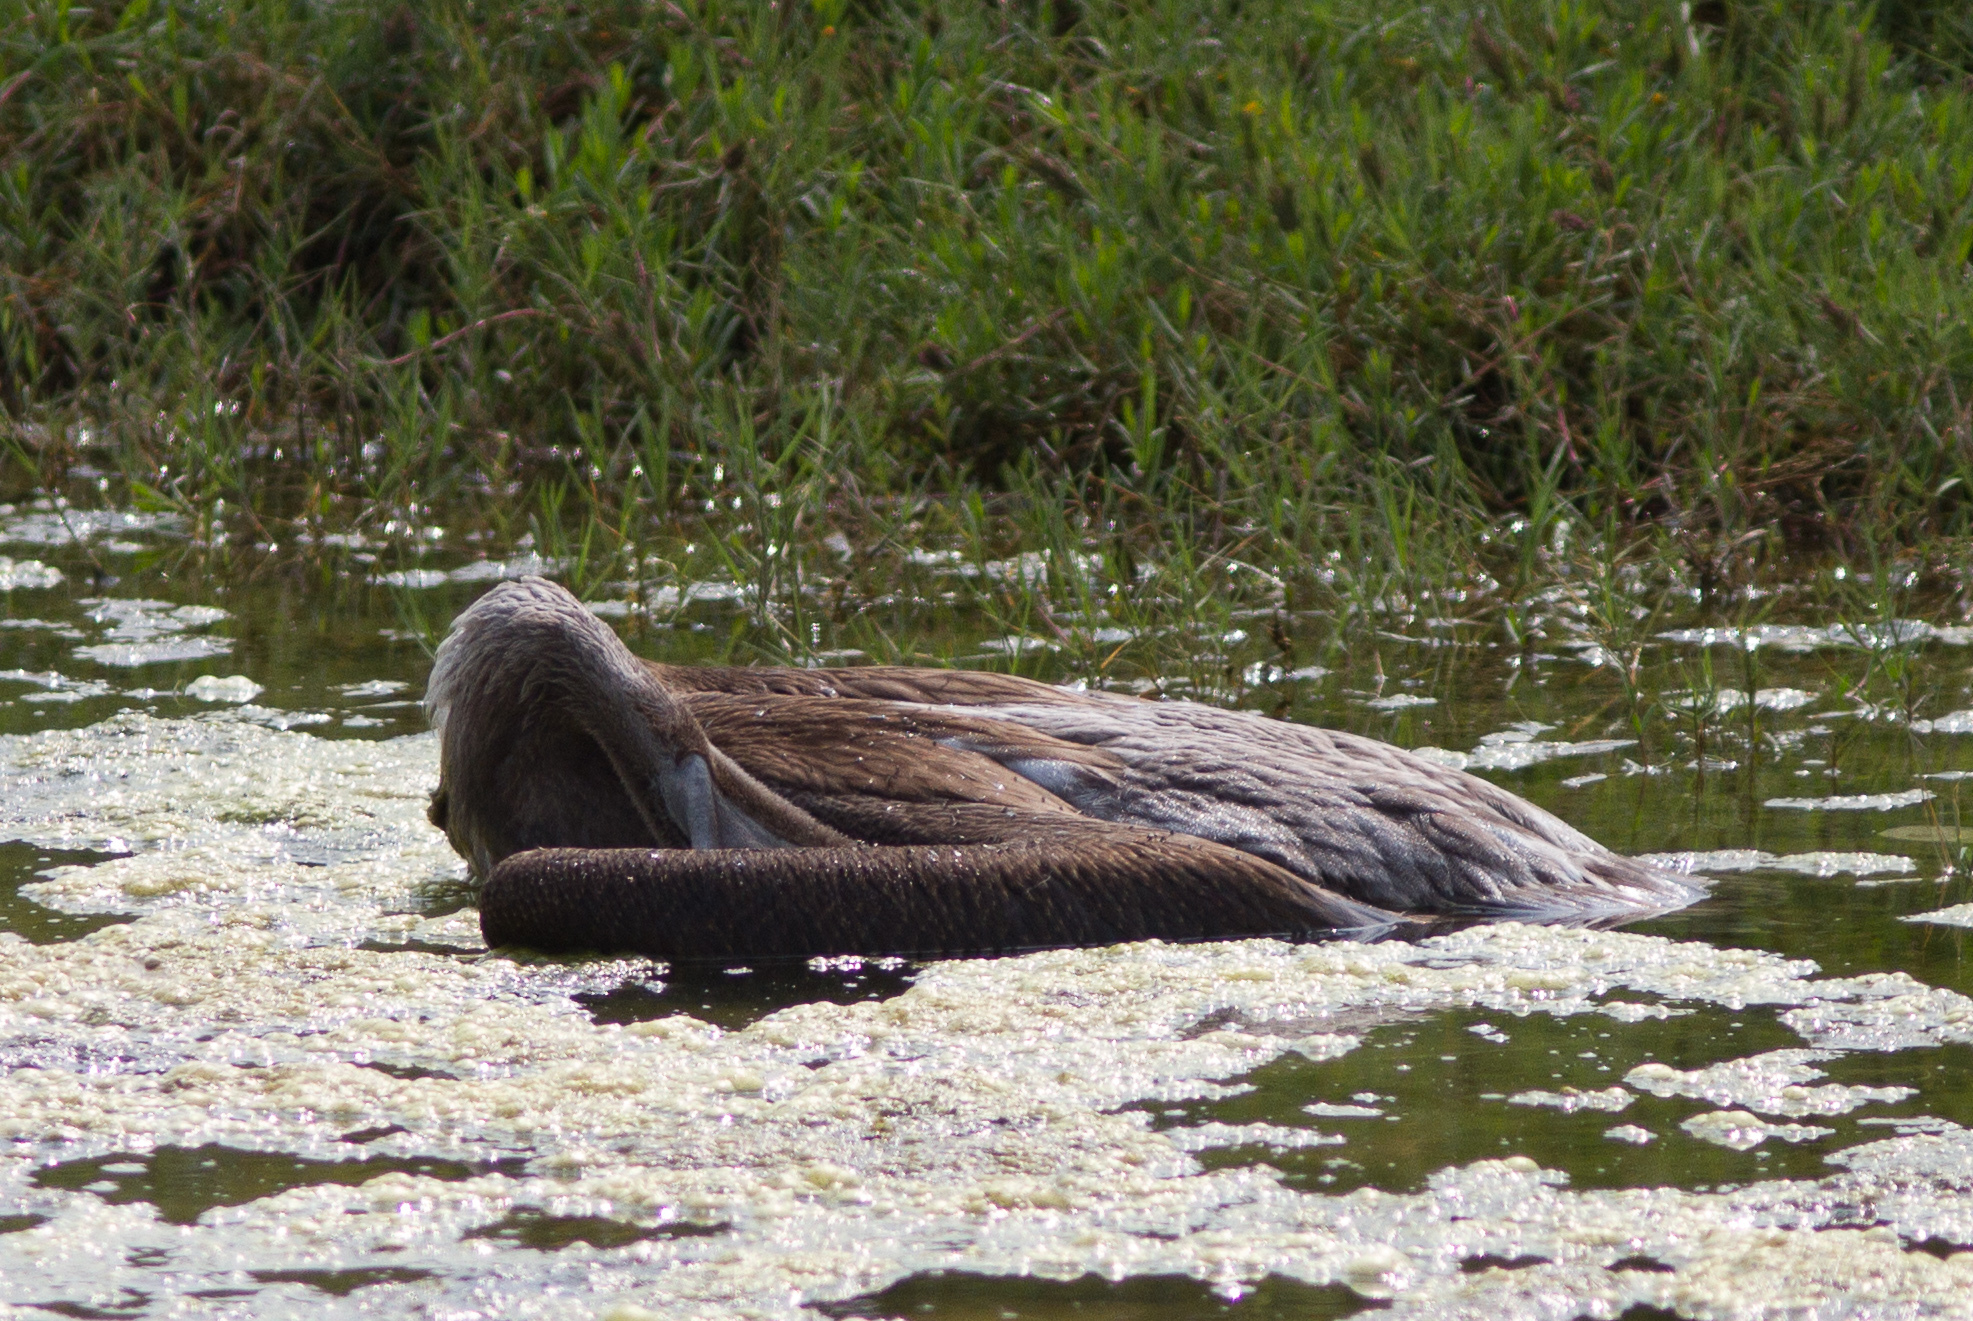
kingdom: Animalia
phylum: Chordata
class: Aves
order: Pelecaniformes
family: Pelecanidae
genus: Pelecanus
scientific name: Pelecanus occidentalis
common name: Brown pelican
